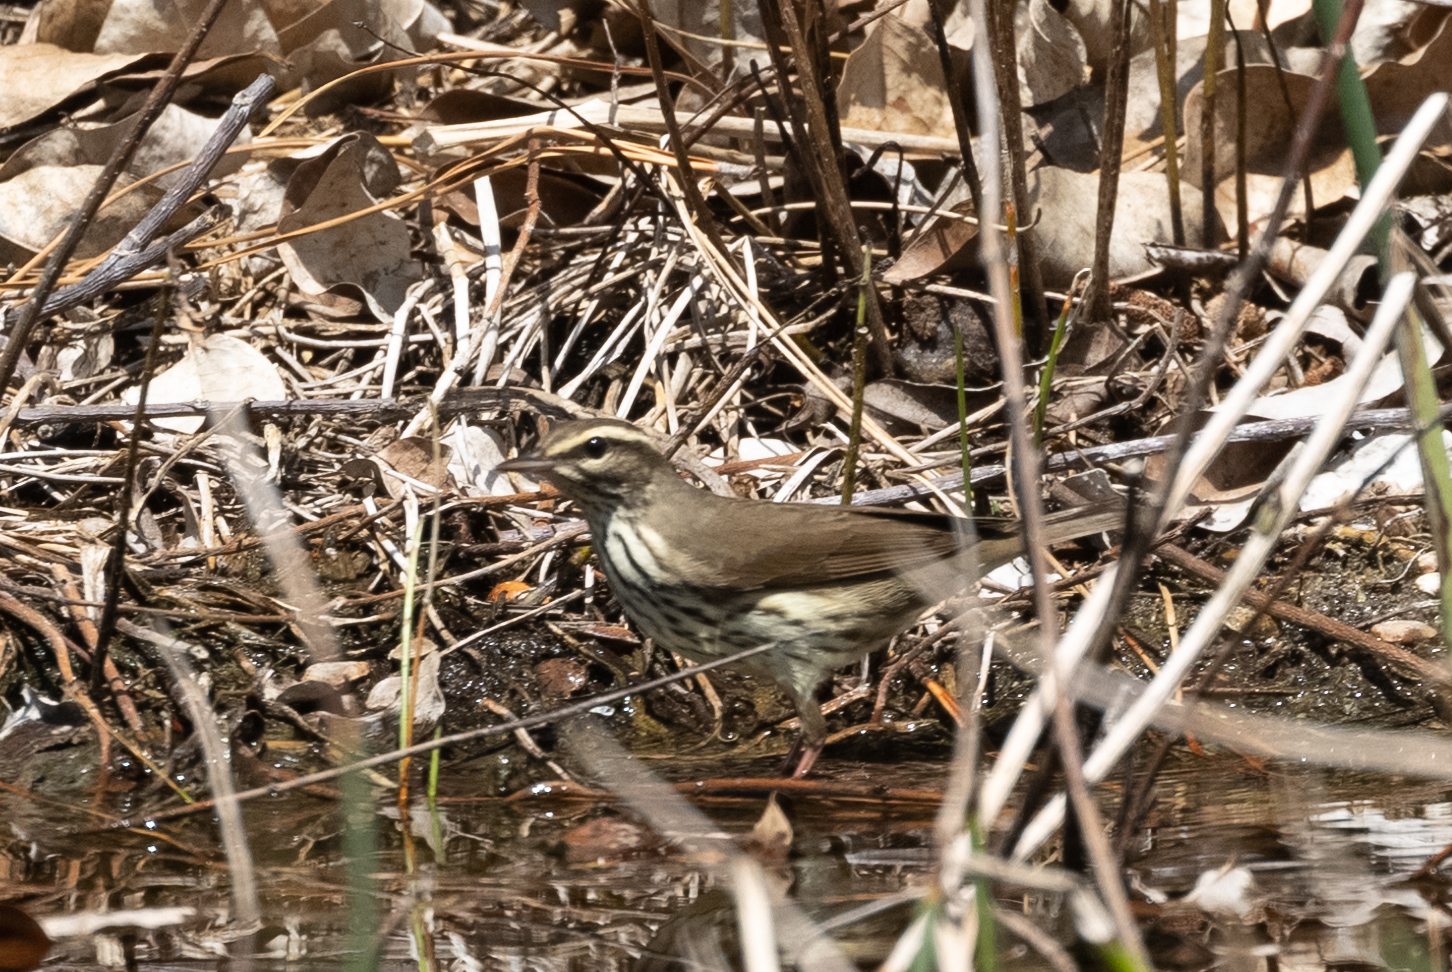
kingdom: Animalia
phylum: Chordata
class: Aves
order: Passeriformes
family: Parulidae
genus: Parkesia
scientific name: Parkesia noveboracensis
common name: Northern waterthrush
